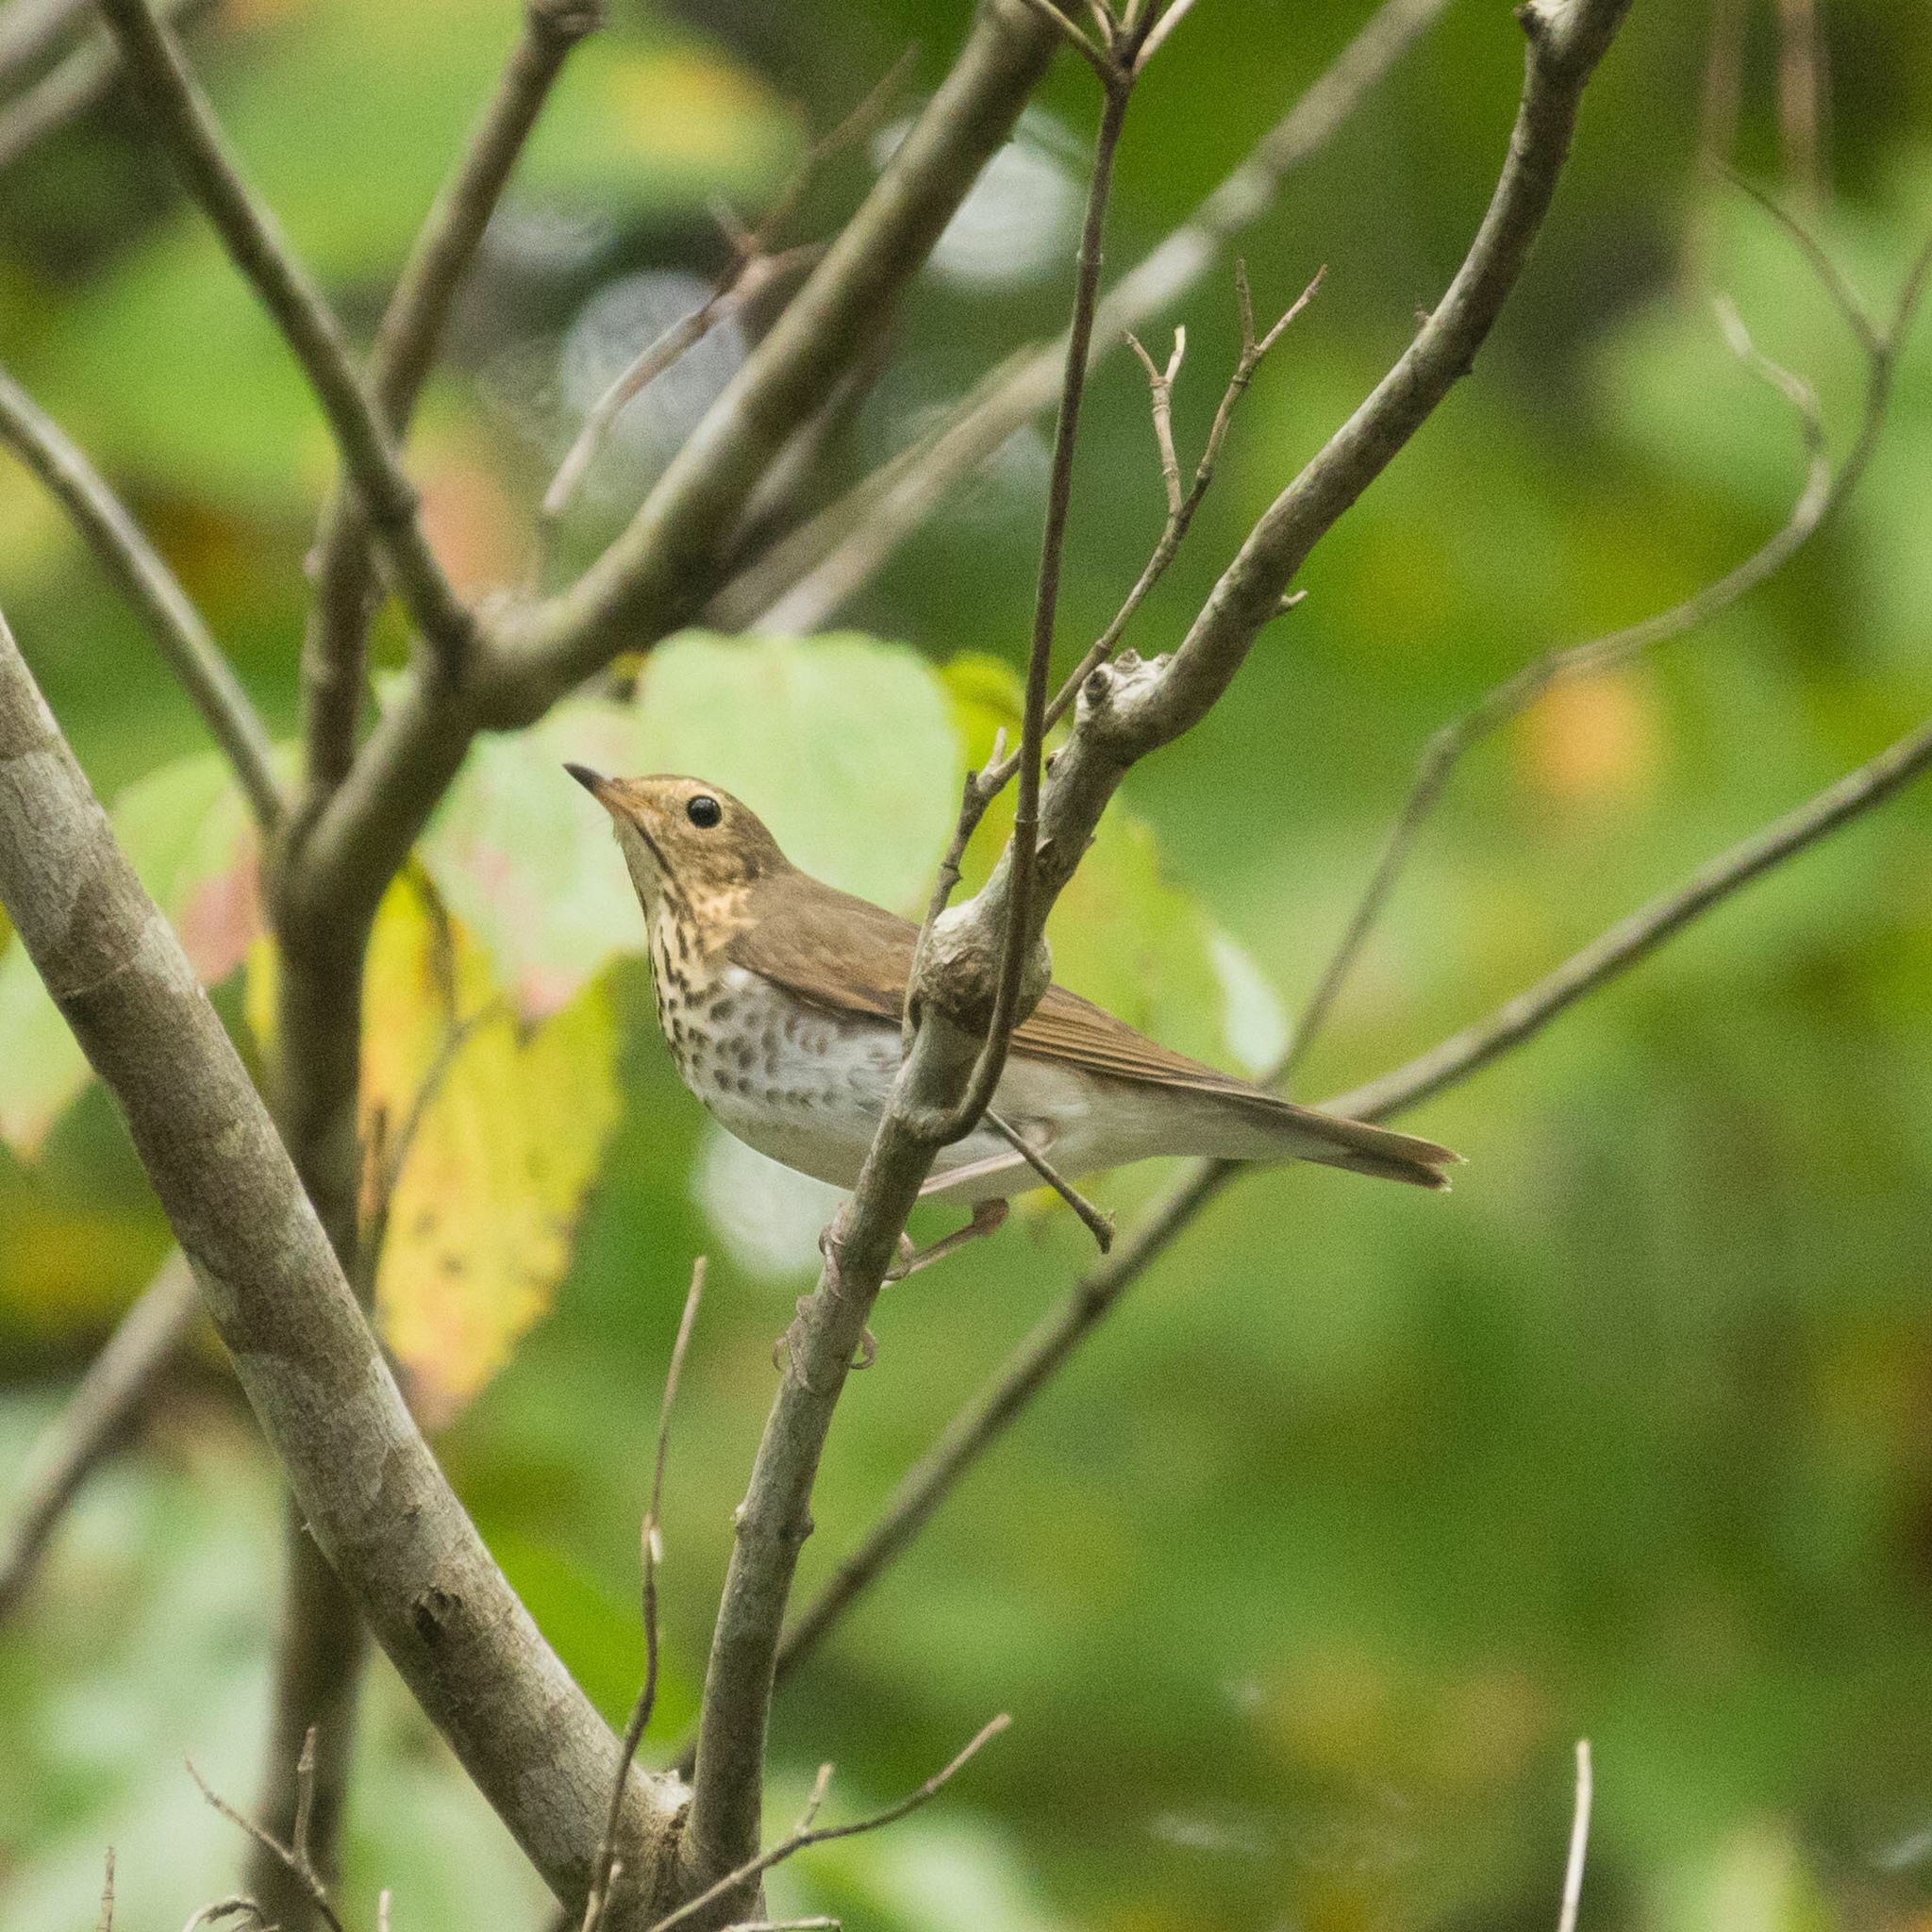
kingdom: Animalia
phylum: Chordata
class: Aves
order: Passeriformes
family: Turdidae
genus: Catharus
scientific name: Catharus ustulatus
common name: Swainson's thrush
